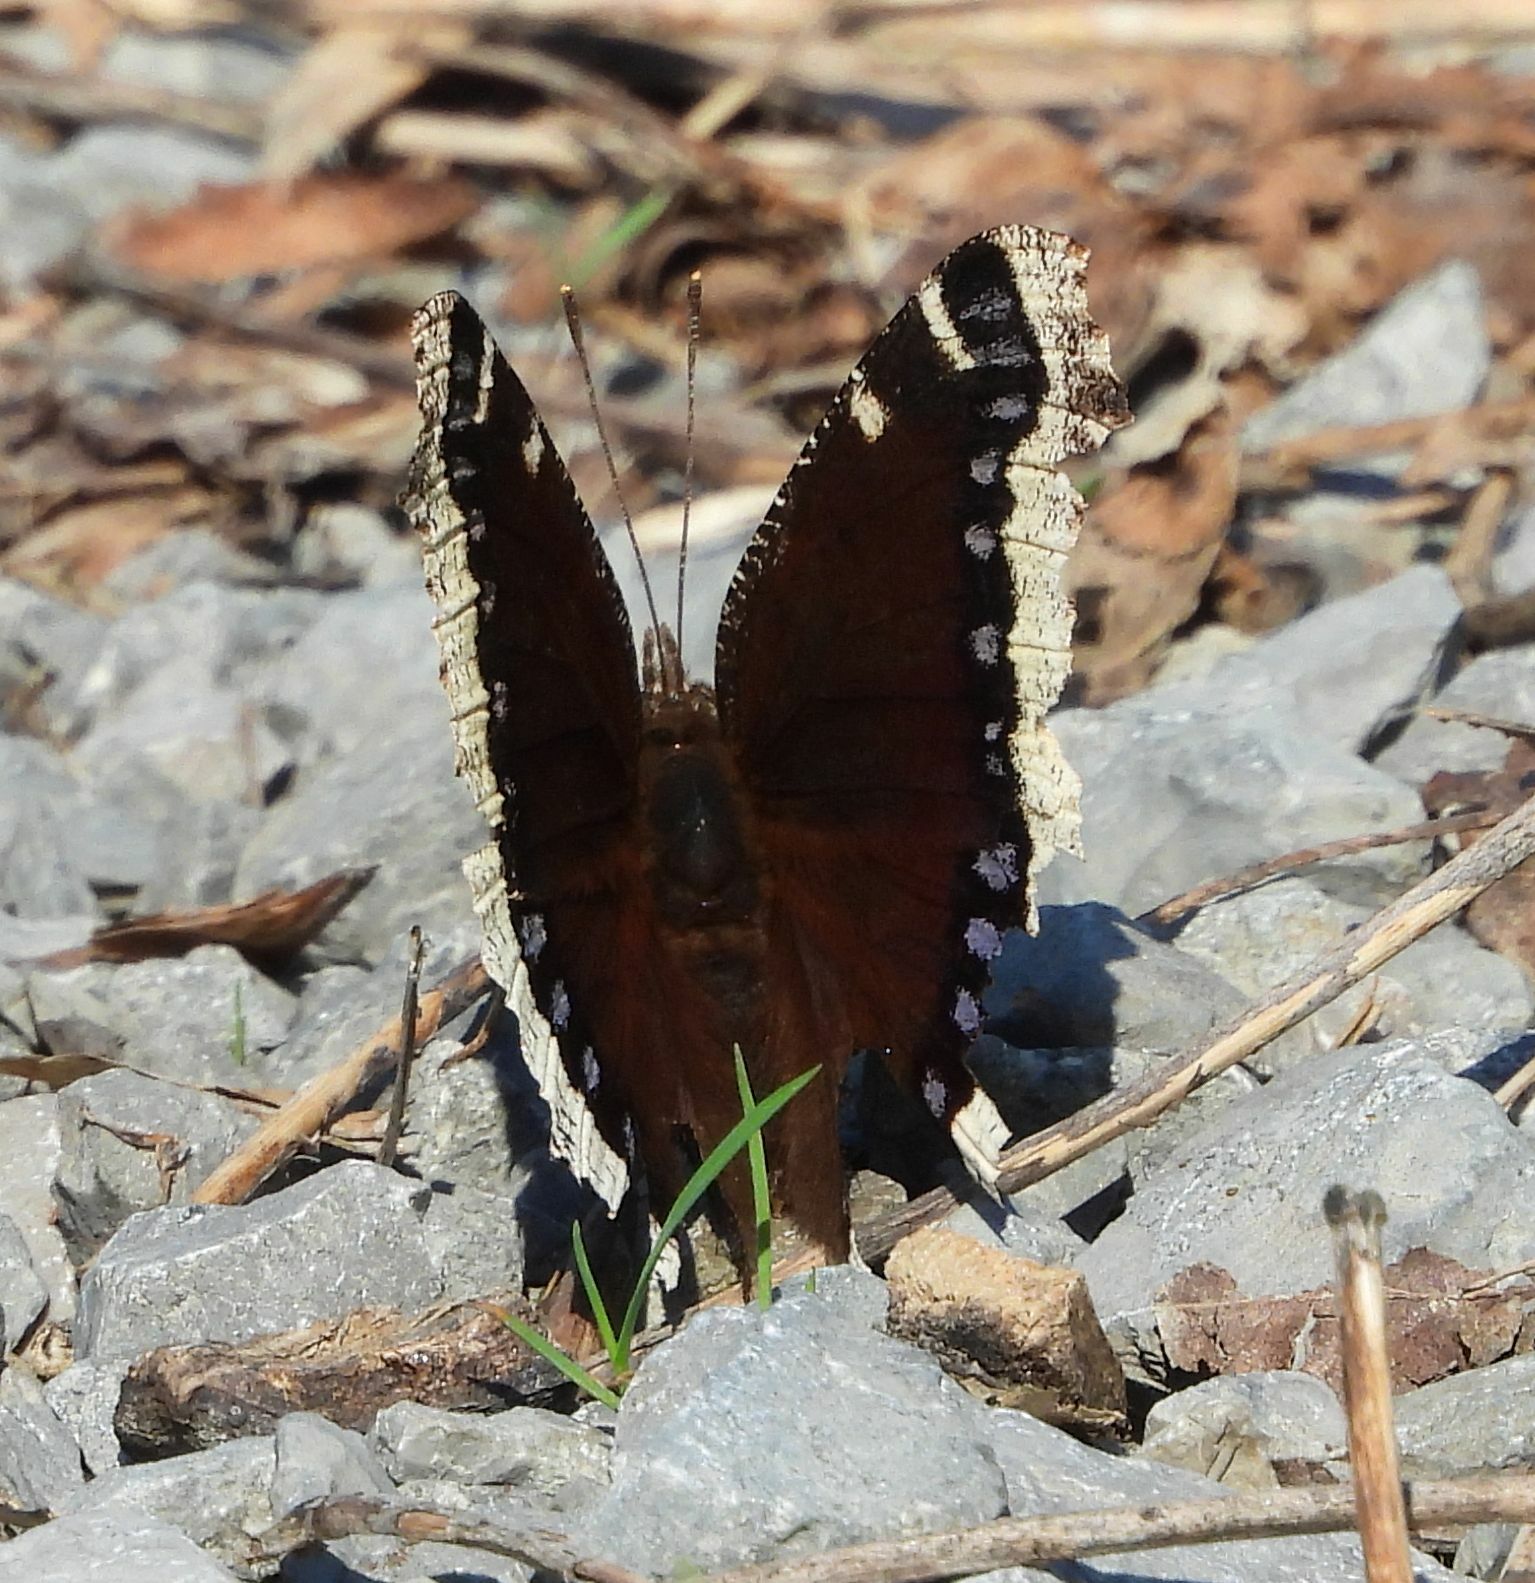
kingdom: Animalia
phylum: Arthropoda
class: Insecta
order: Lepidoptera
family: Nymphalidae
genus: Nymphalis
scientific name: Nymphalis antiopa
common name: Camberwell beauty
